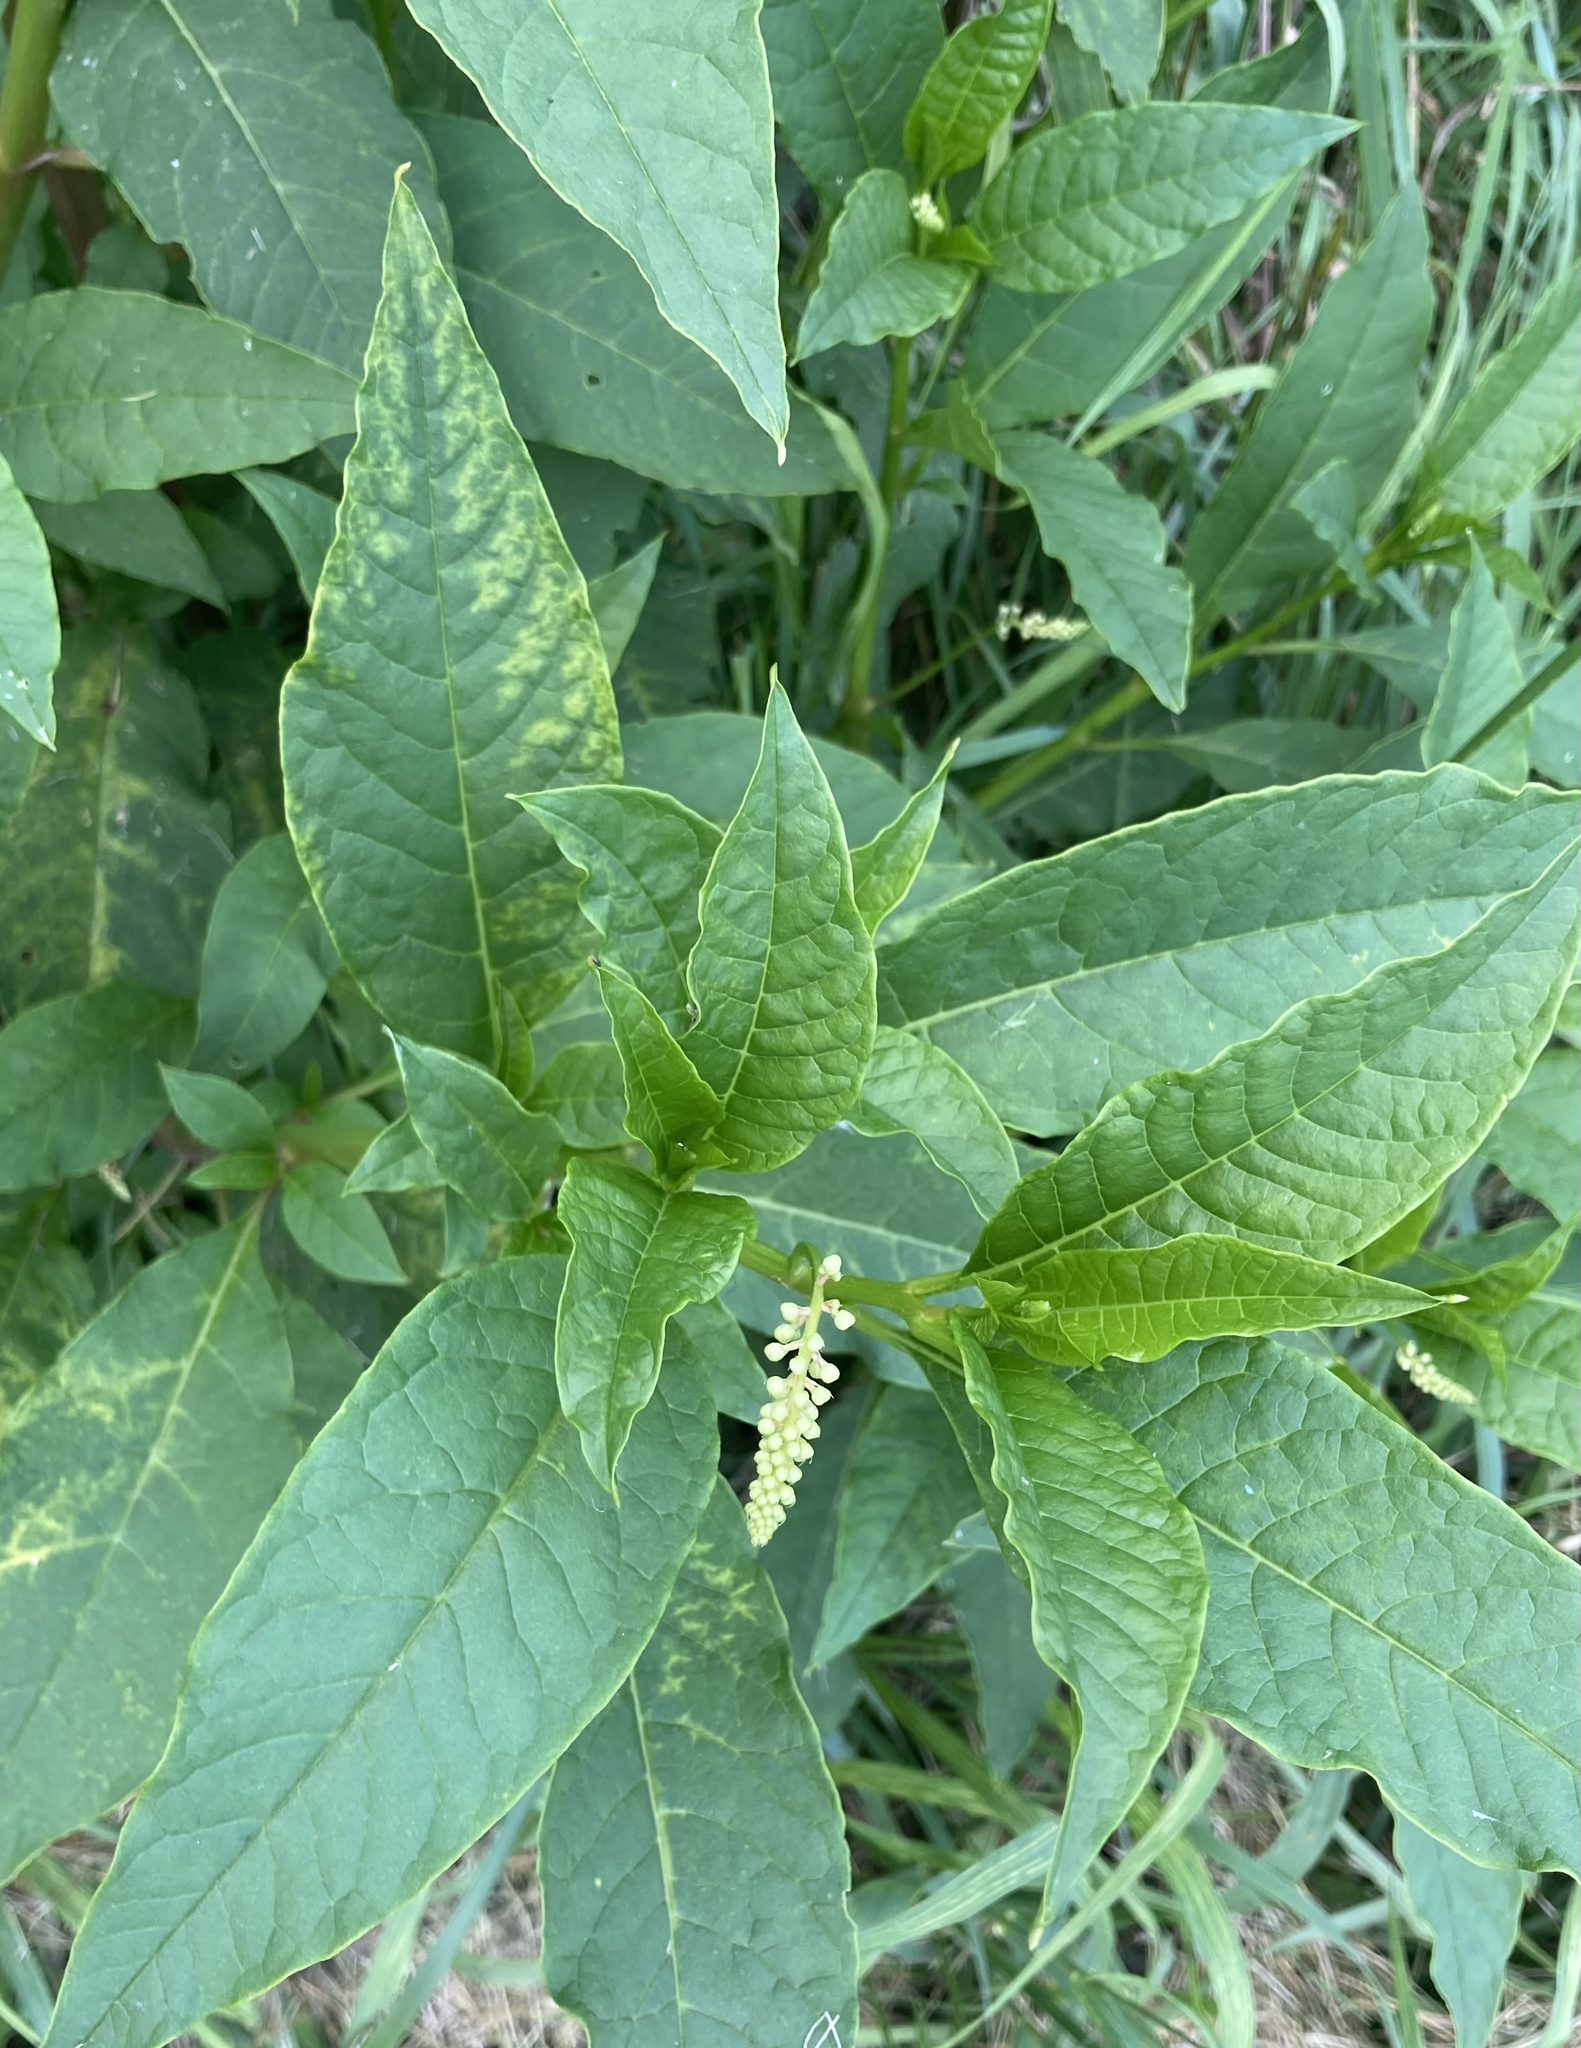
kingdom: Plantae
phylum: Tracheophyta
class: Magnoliopsida
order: Caryophyllales
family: Phytolaccaceae
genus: Phytolacca
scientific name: Phytolacca americana
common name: American pokeweed
